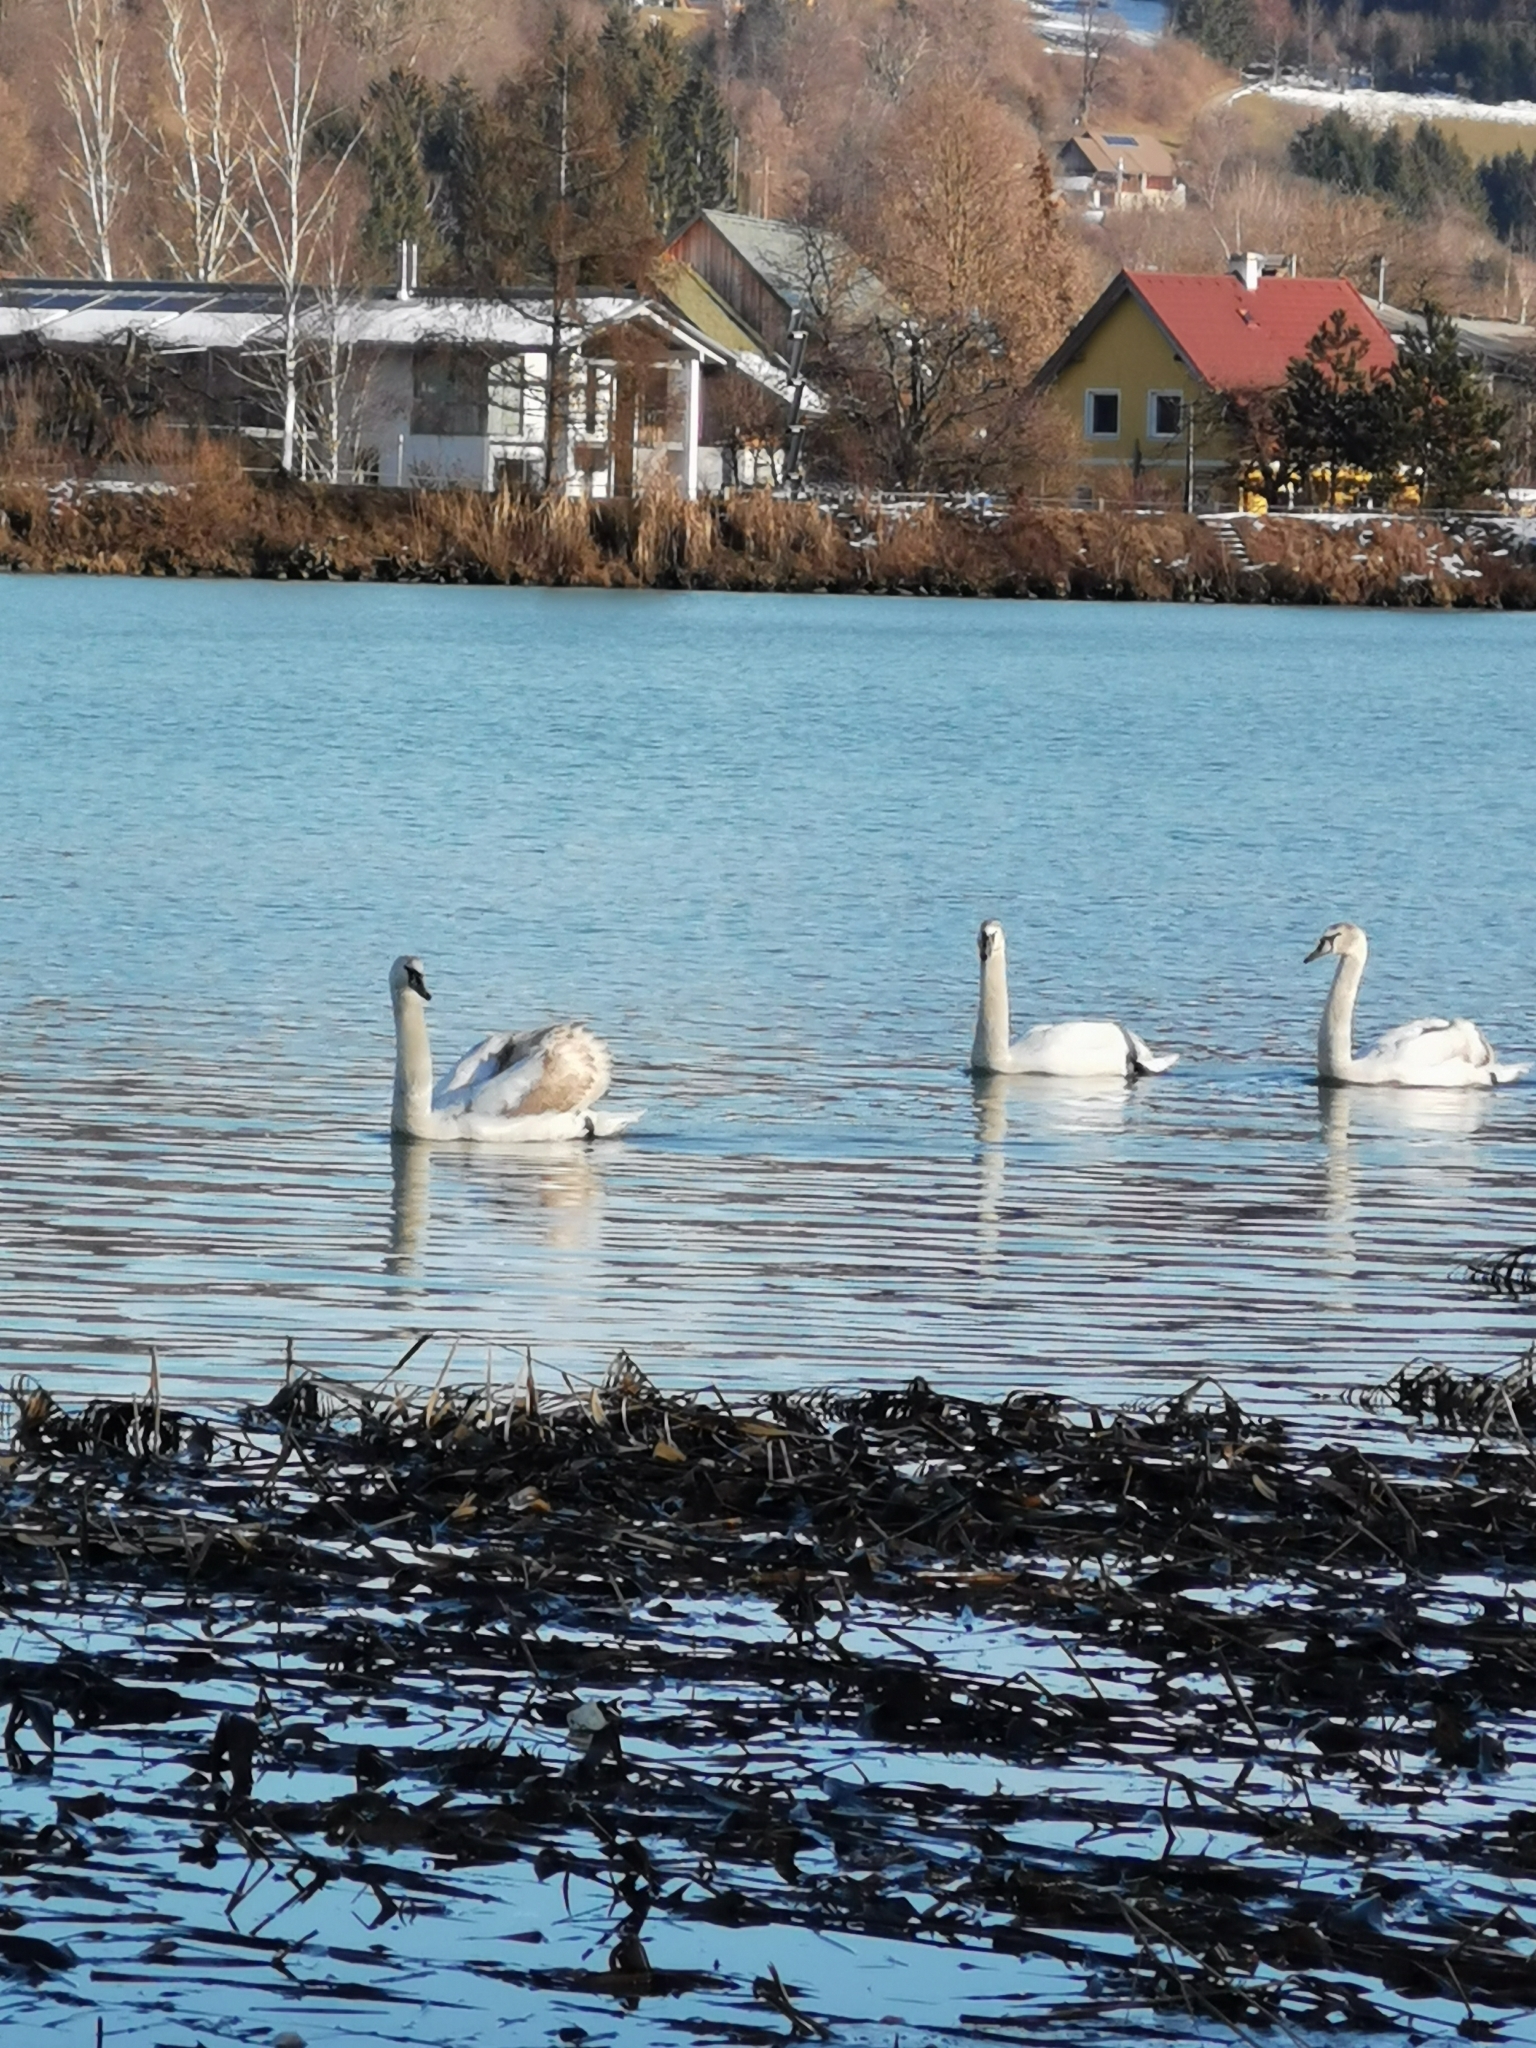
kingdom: Animalia
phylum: Chordata
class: Aves
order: Anseriformes
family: Anatidae
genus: Cygnus
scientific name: Cygnus olor
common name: Mute swan
